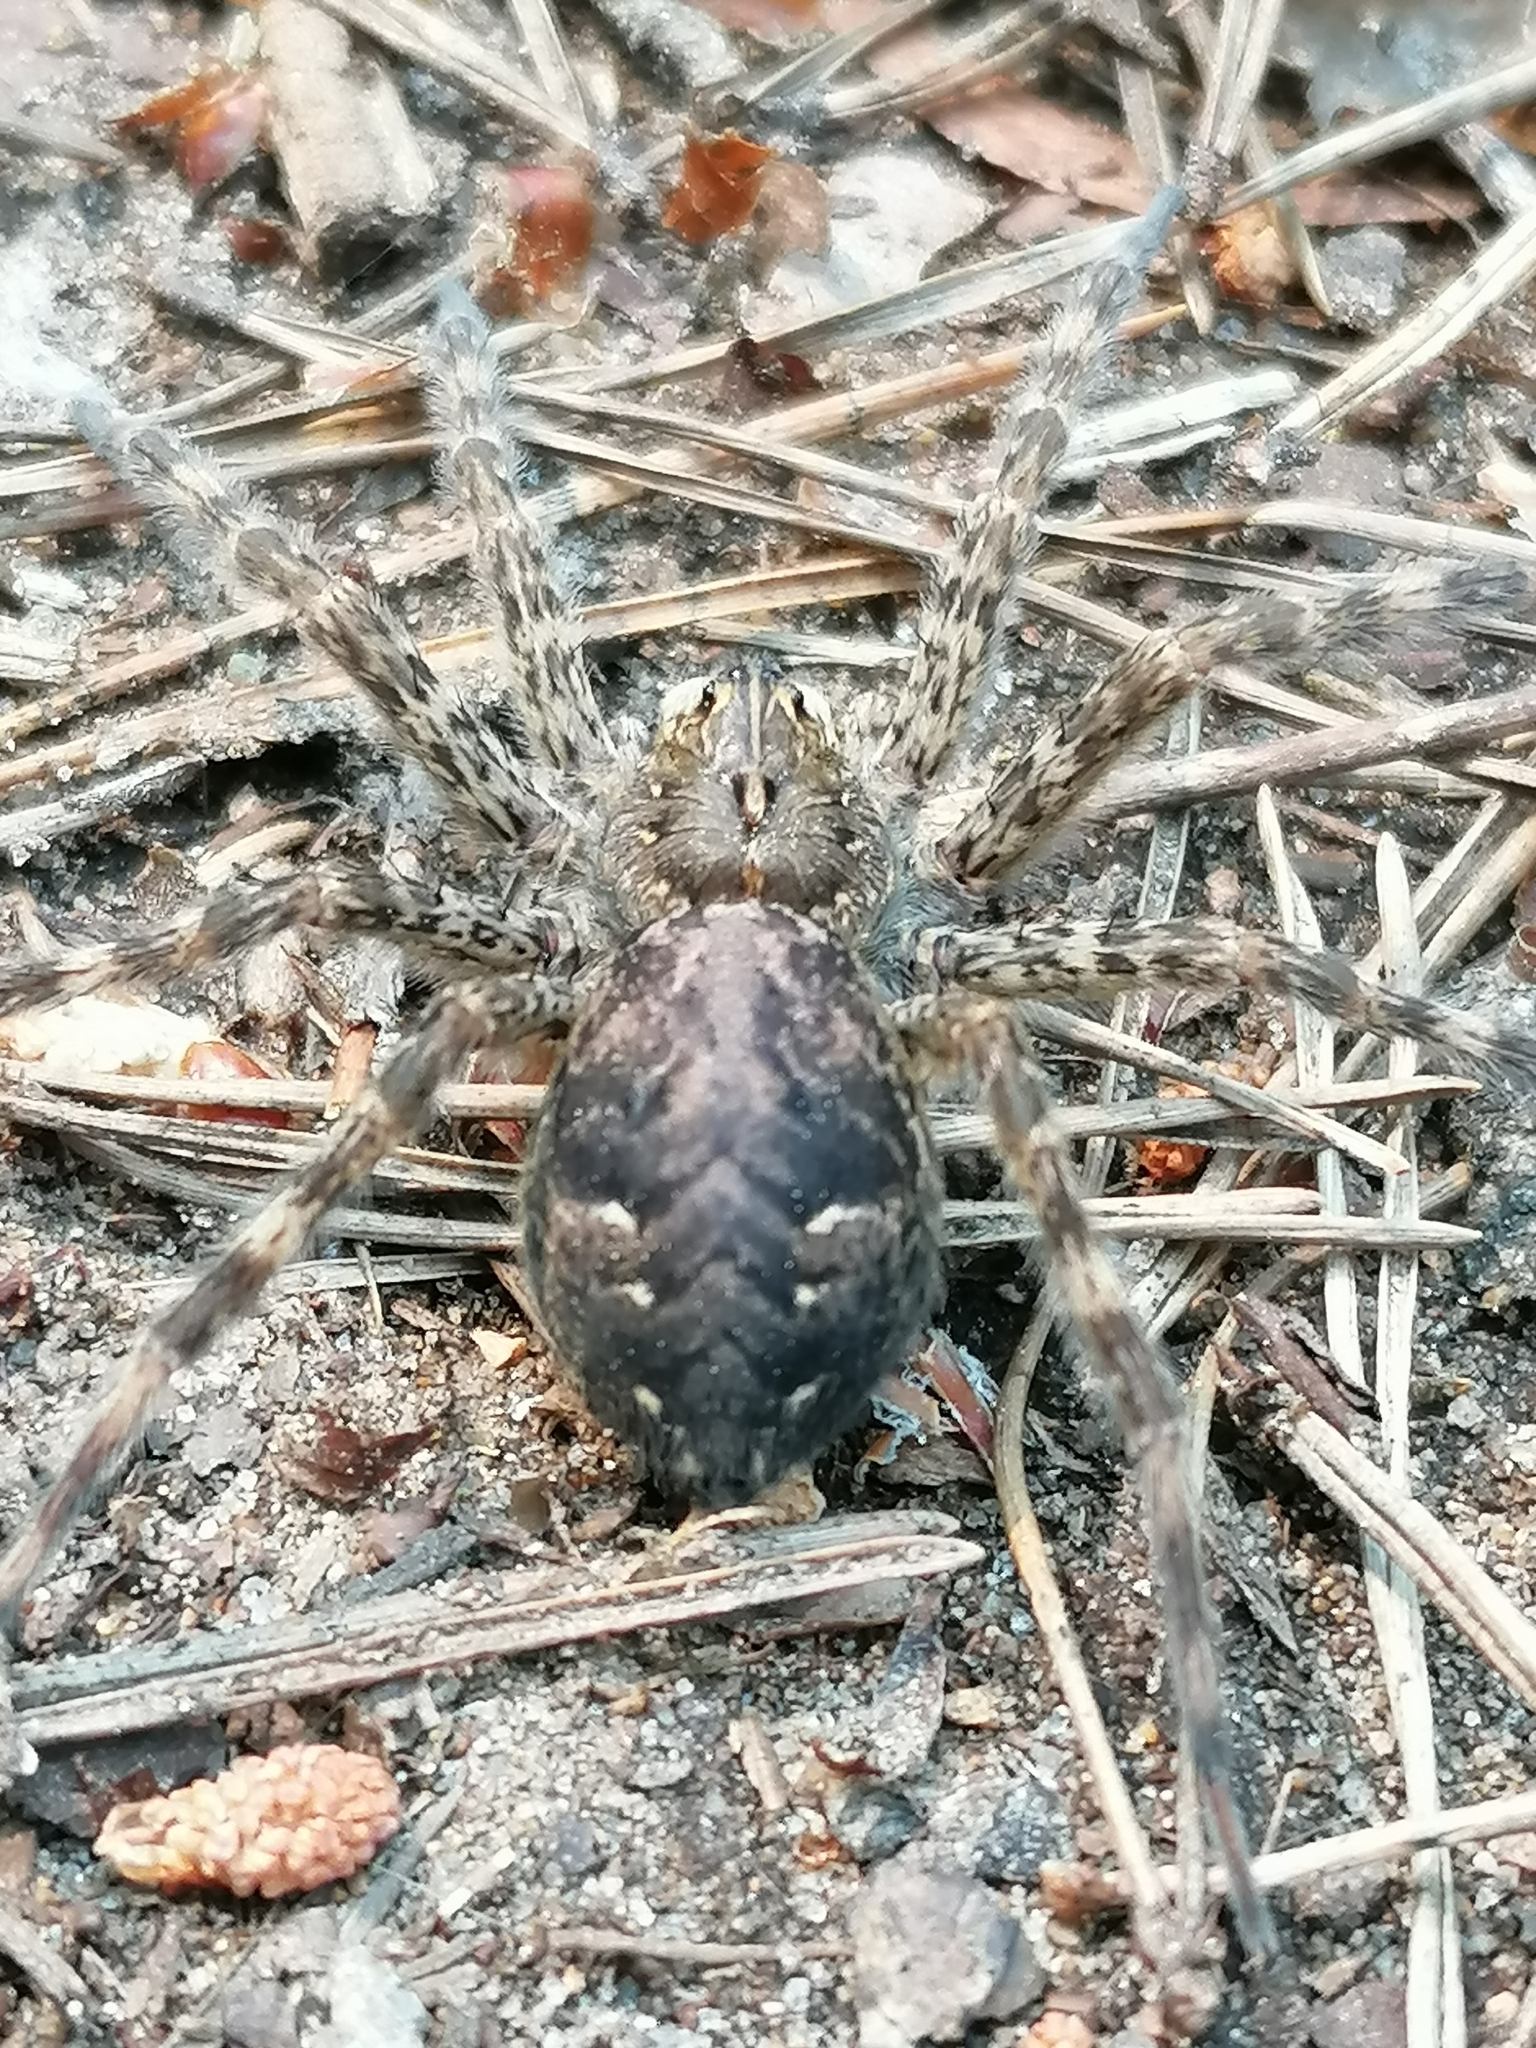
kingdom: Animalia
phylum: Arthropoda
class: Arachnida
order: Araneae
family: Pisauridae
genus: Dolomedes
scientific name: Dolomedes tenebrosus
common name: Dark fishing spider
